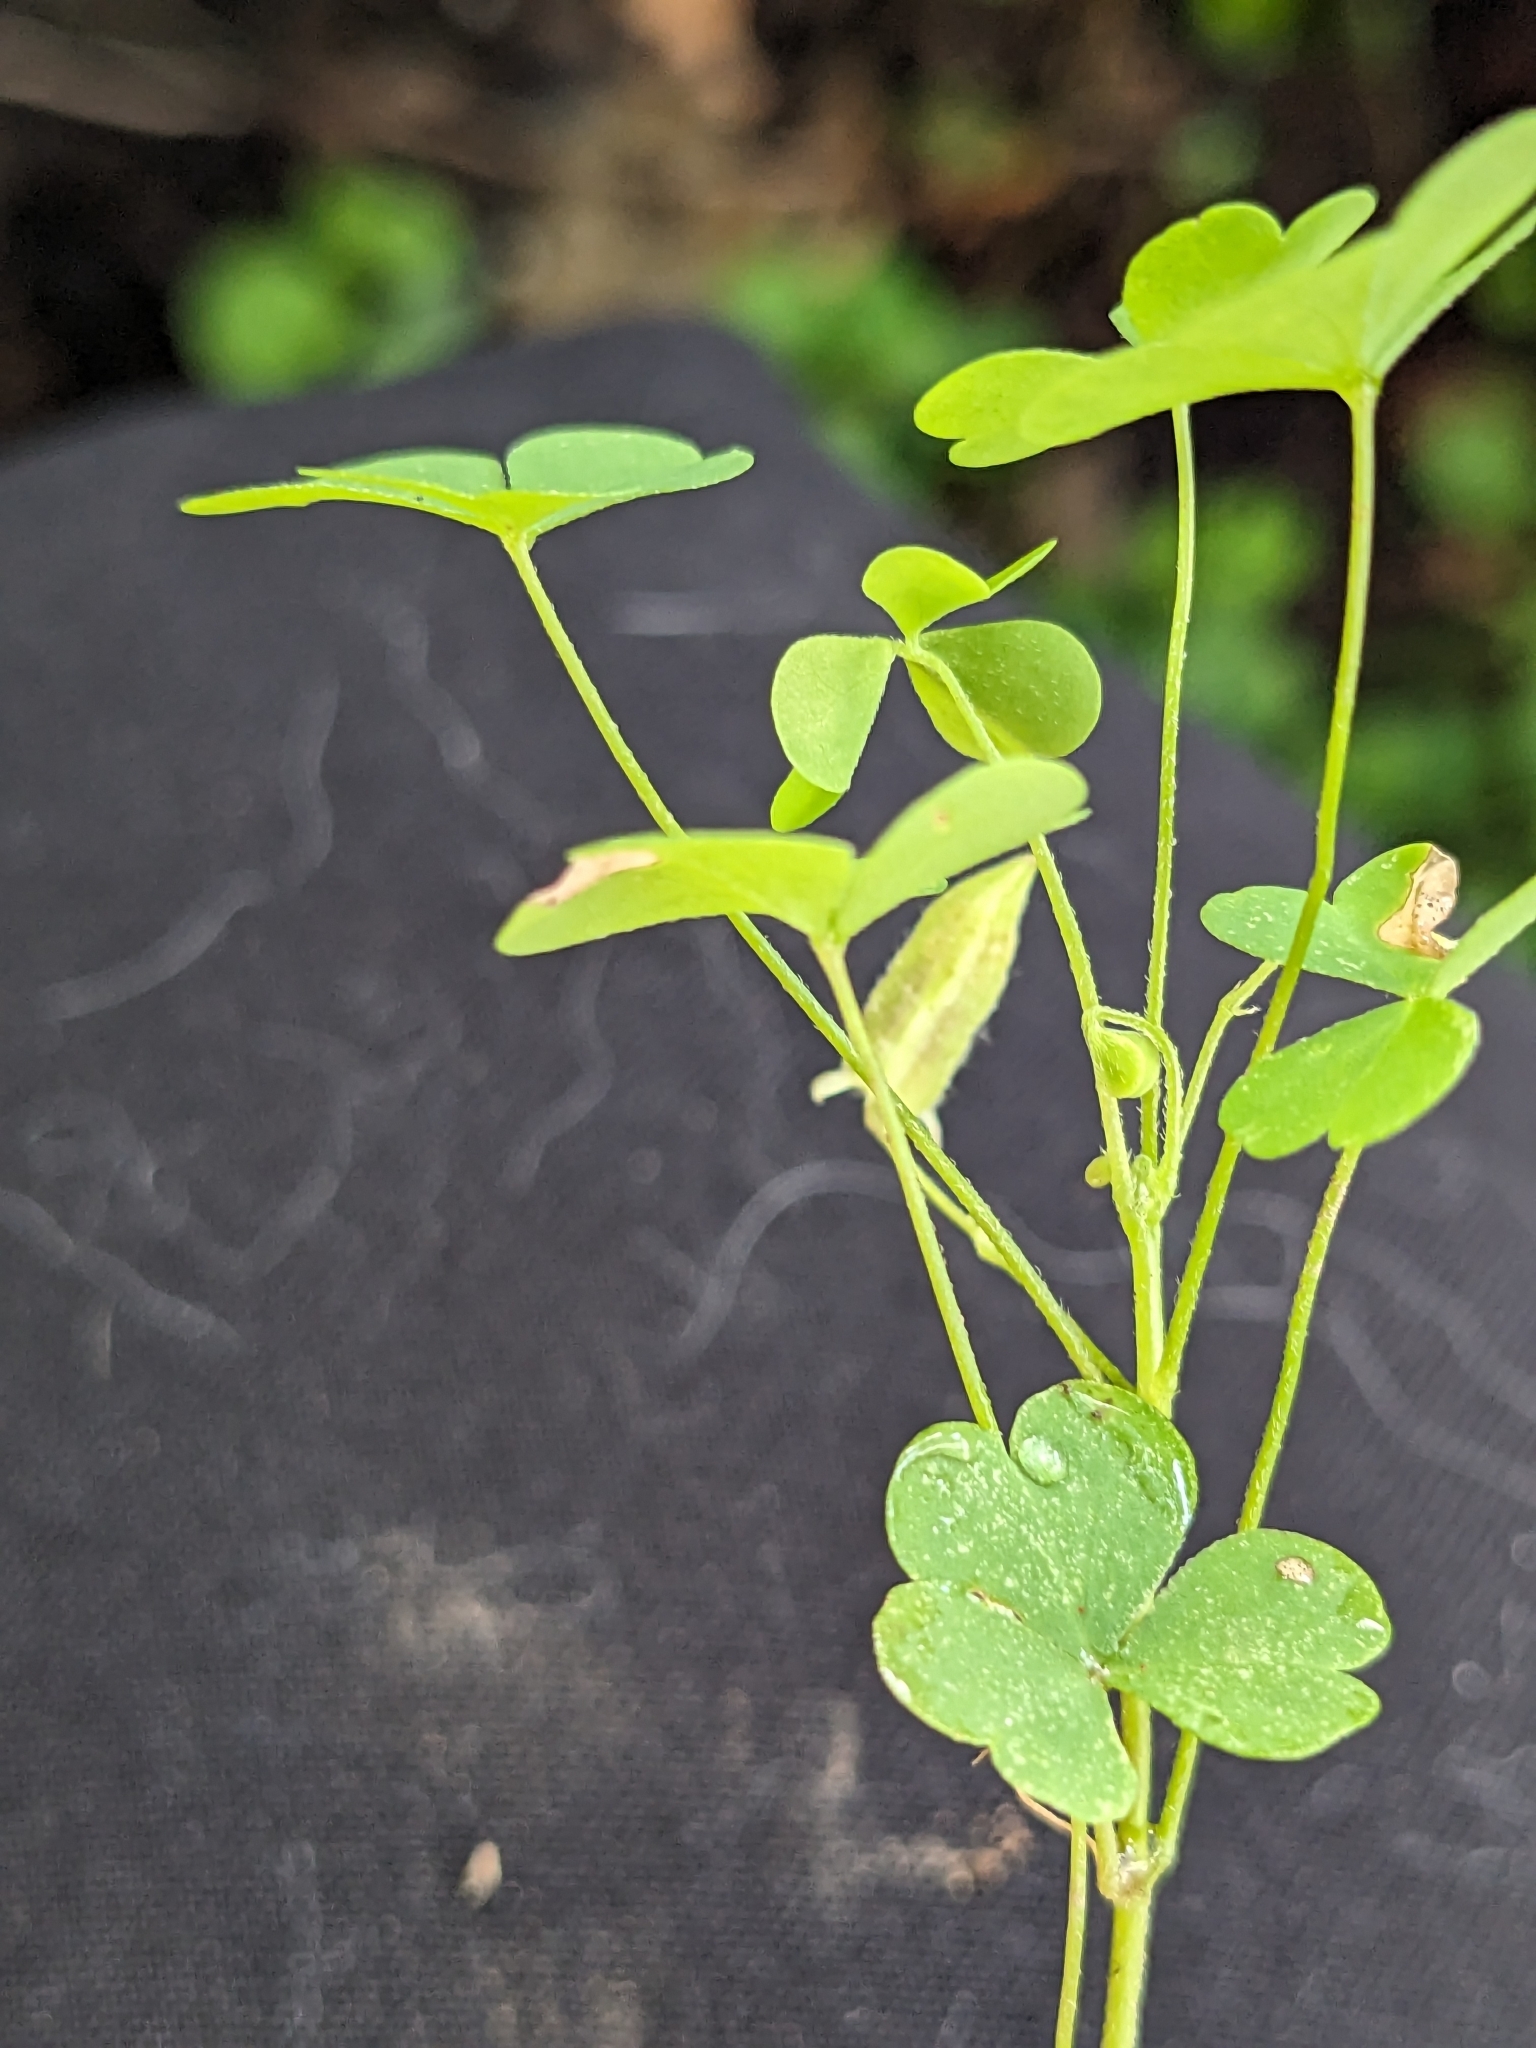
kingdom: Plantae
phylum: Tracheophyta
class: Magnoliopsida
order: Oxalidales
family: Oxalidaceae
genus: Oxalis
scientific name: Oxalis dillenii
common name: Sussex yellow-sorrel
